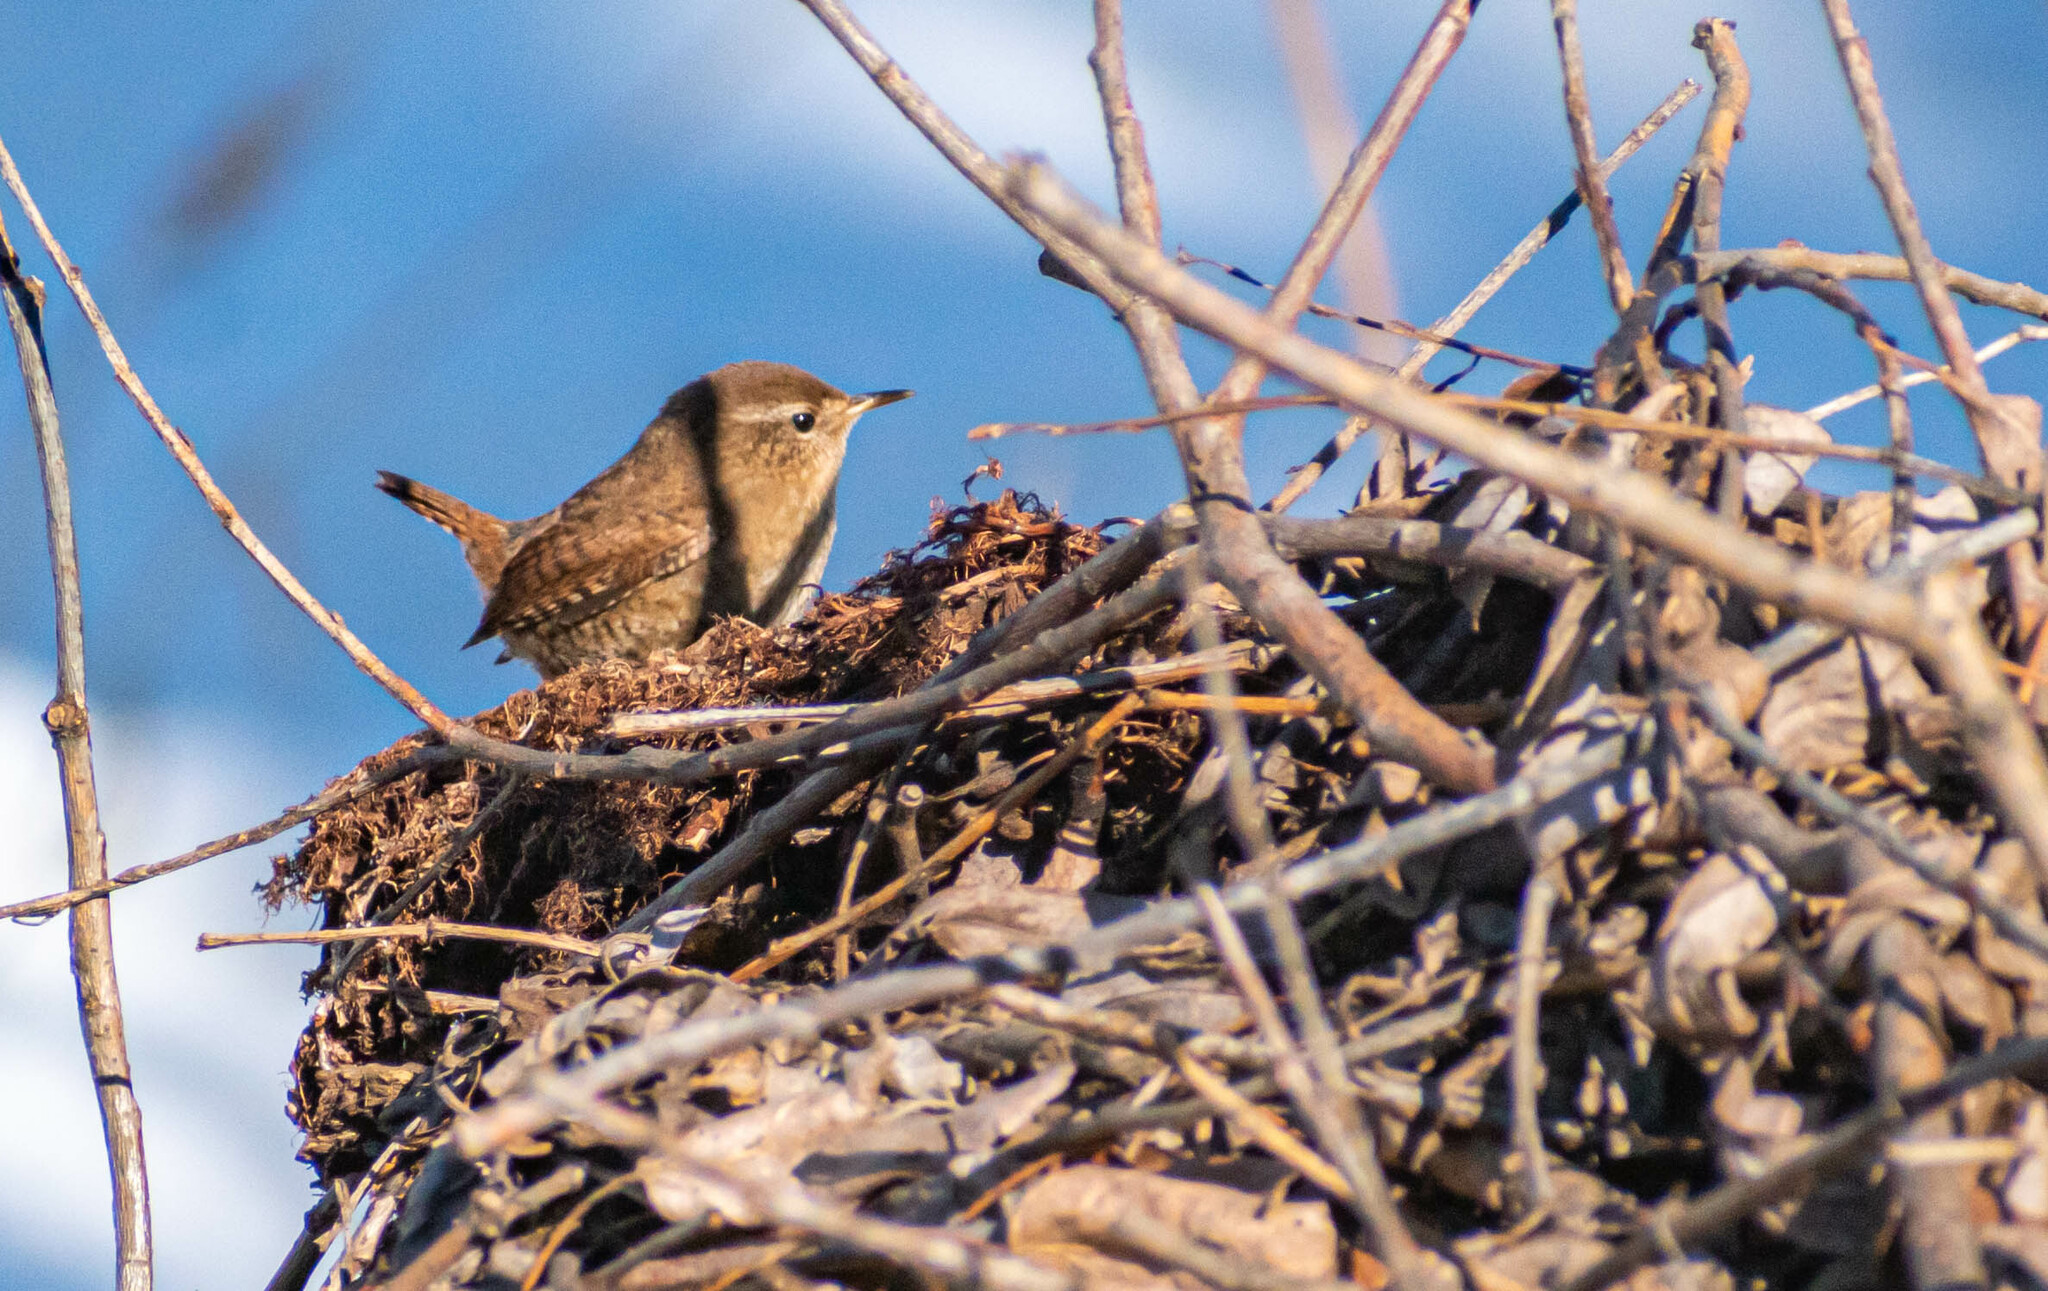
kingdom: Animalia
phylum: Chordata
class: Aves
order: Passeriformes
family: Troglodytidae
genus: Troglodytes
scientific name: Troglodytes troglodytes
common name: Eurasian wren
